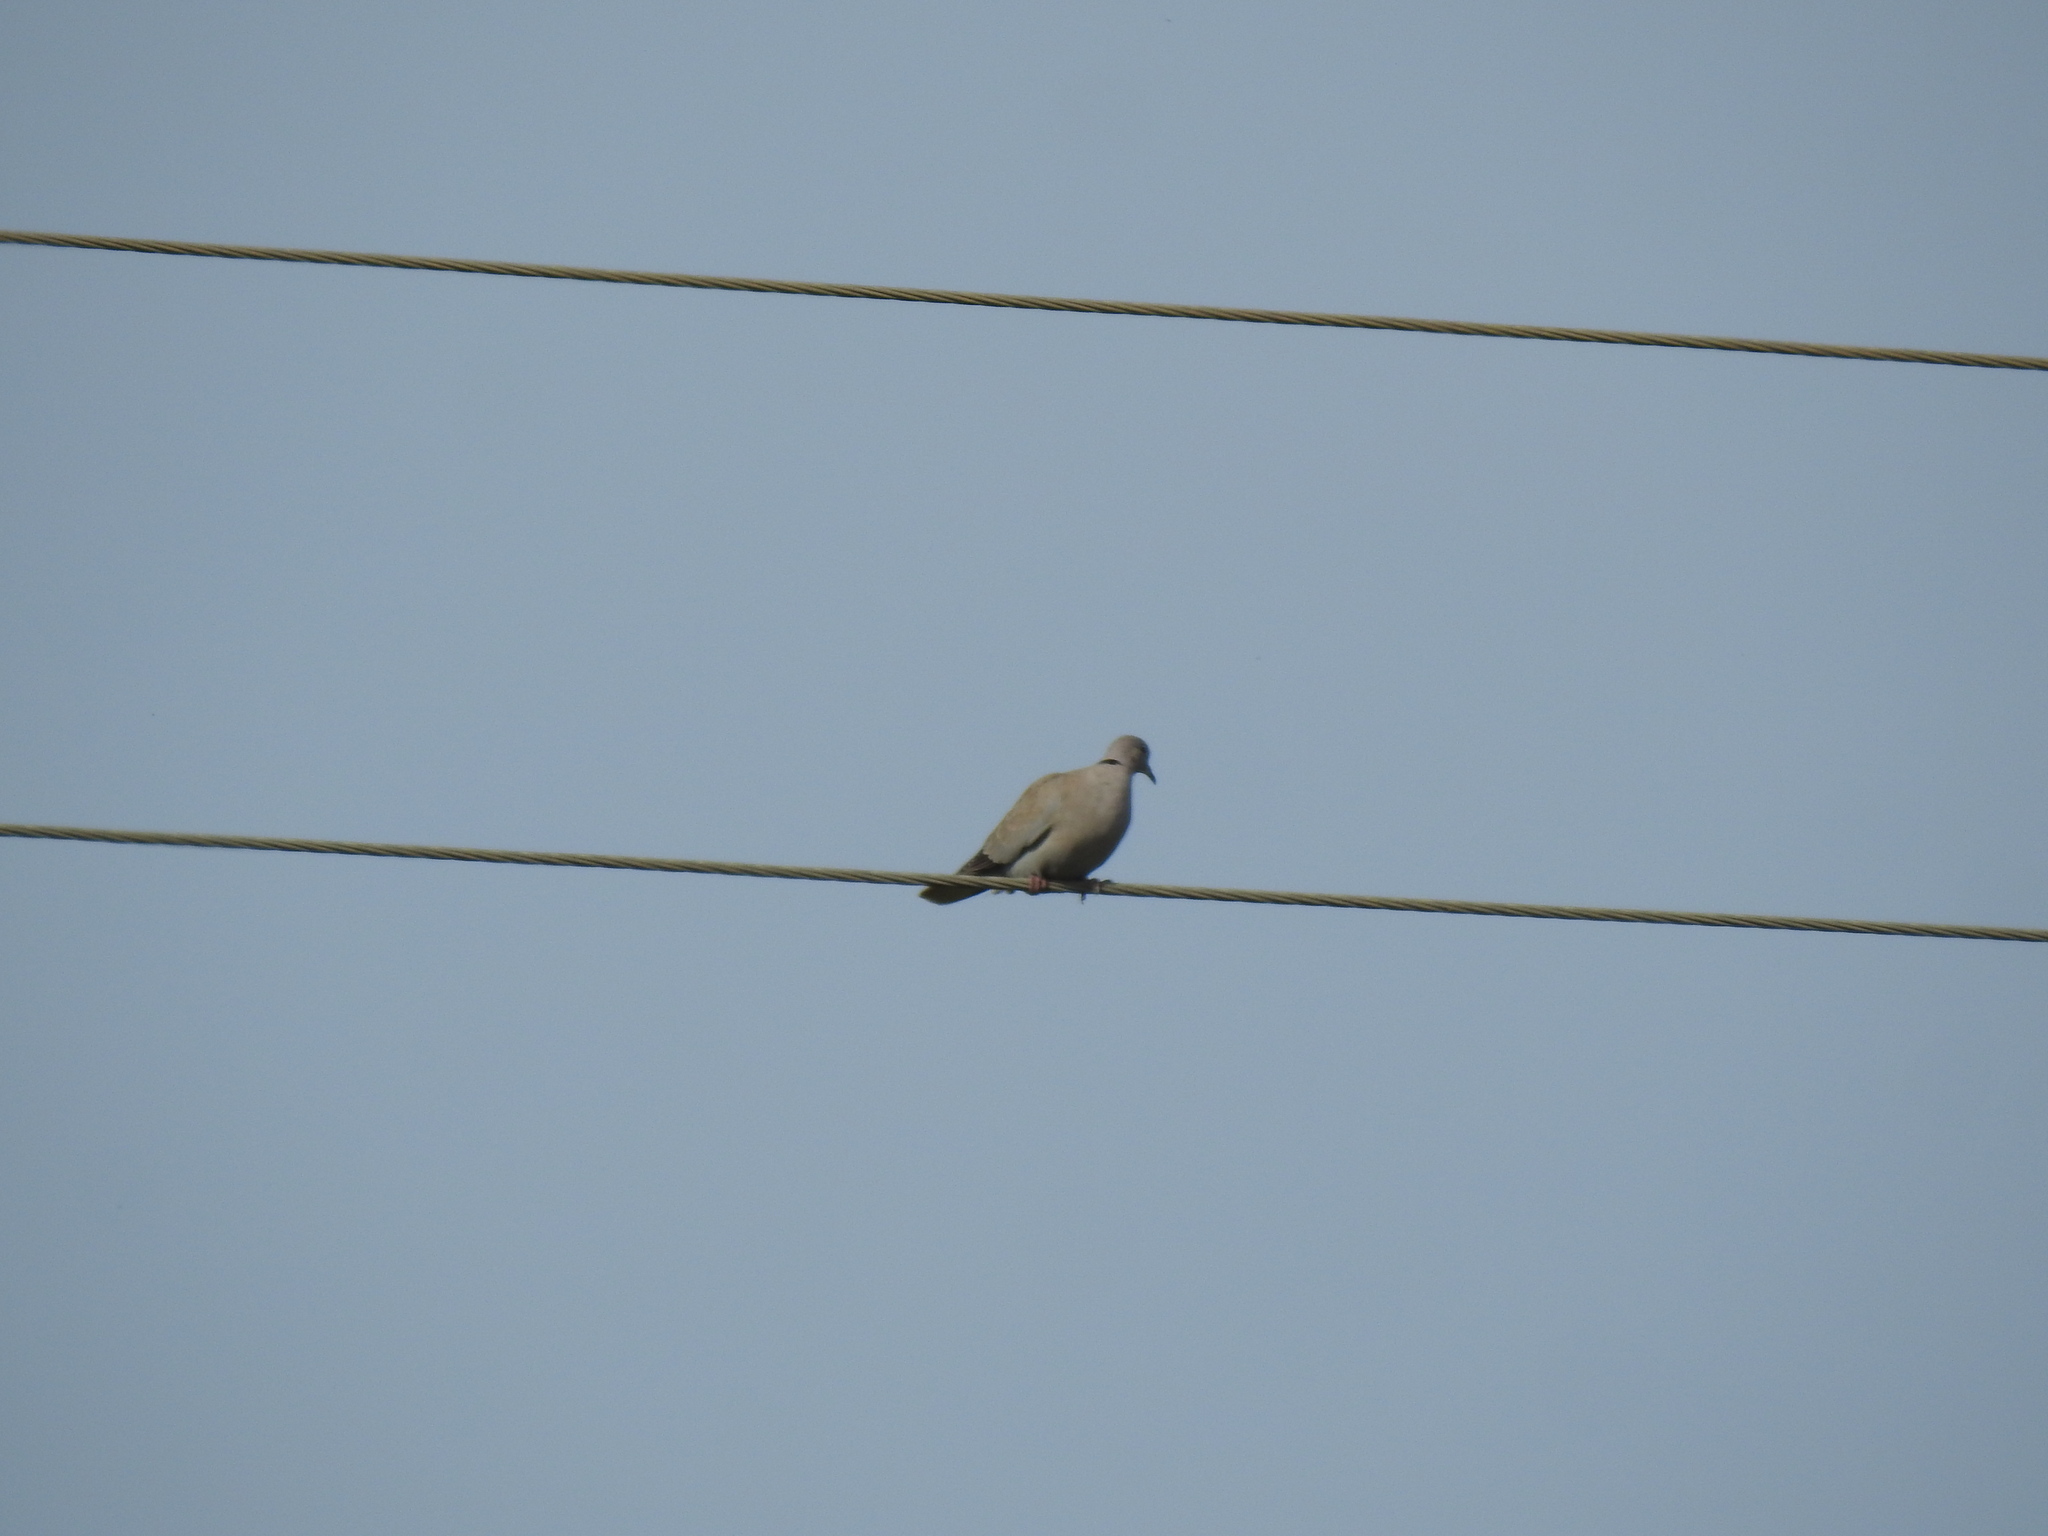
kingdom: Animalia
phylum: Chordata
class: Aves
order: Columbiformes
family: Columbidae
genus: Streptopelia
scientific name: Streptopelia decaocto
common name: Eurasian collared dove
